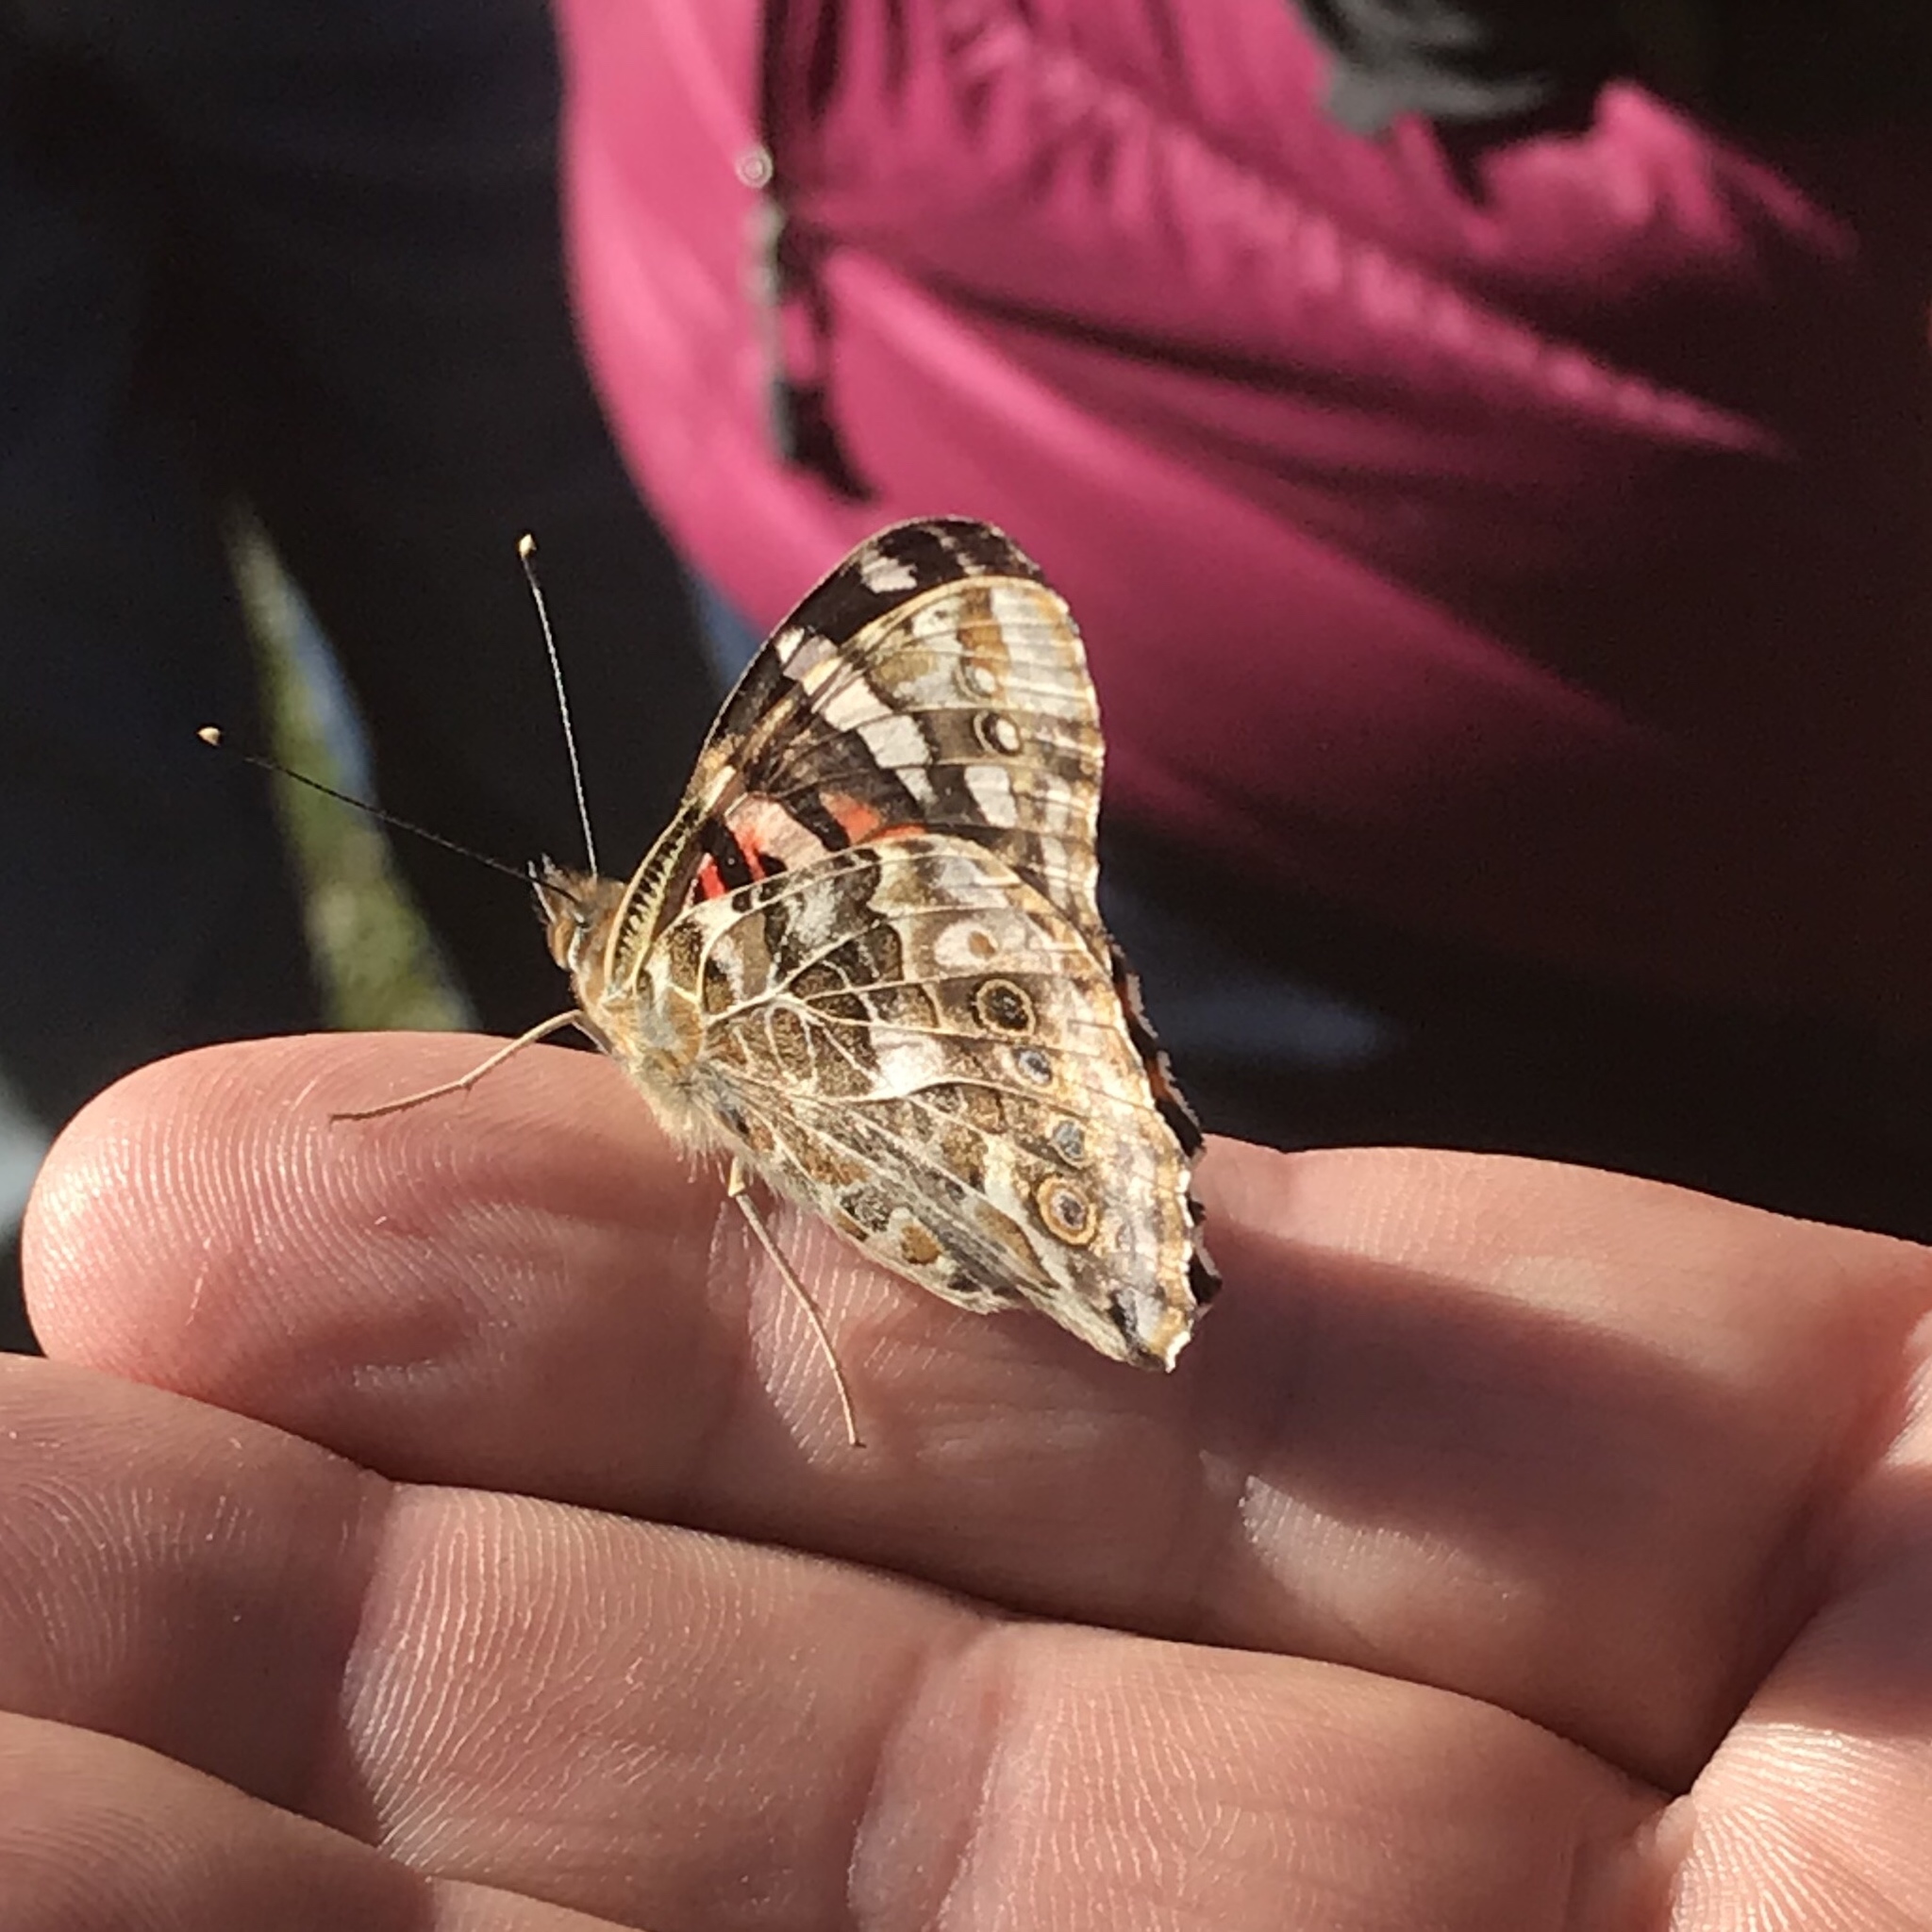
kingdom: Animalia
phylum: Arthropoda
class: Insecta
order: Lepidoptera
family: Nymphalidae
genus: Vanessa
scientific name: Vanessa cardui
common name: Painted lady
